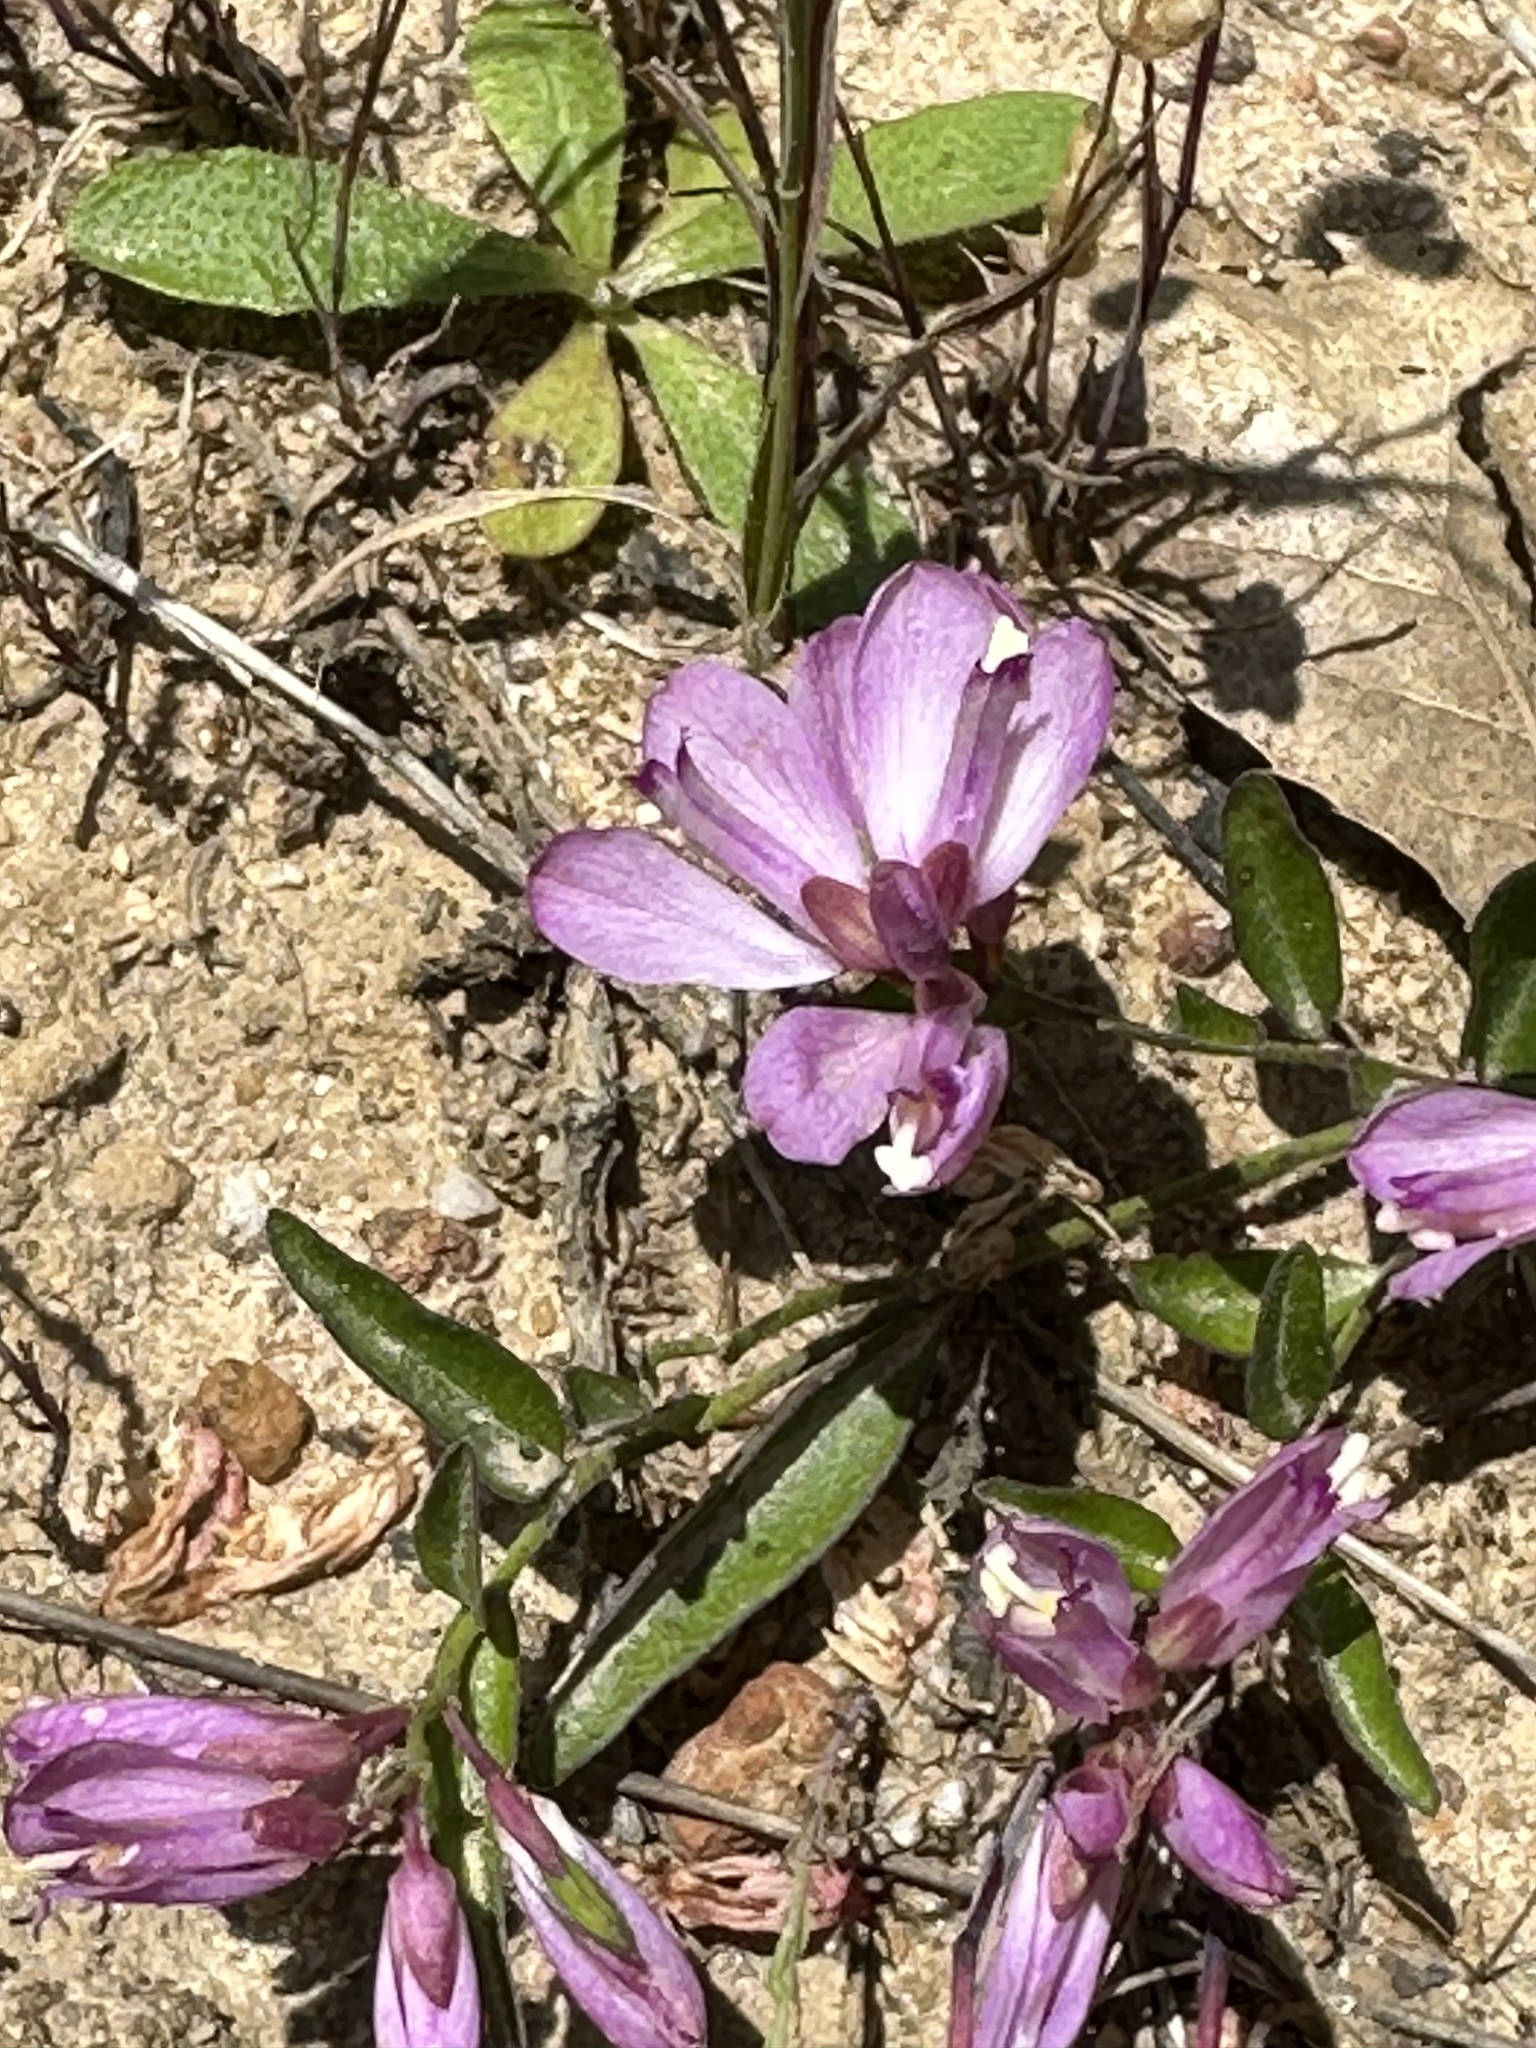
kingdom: Plantae
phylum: Tracheophyta
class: Magnoliopsida
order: Fabales
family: Polygalaceae
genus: Rhinotropis
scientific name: Rhinotropis californica
